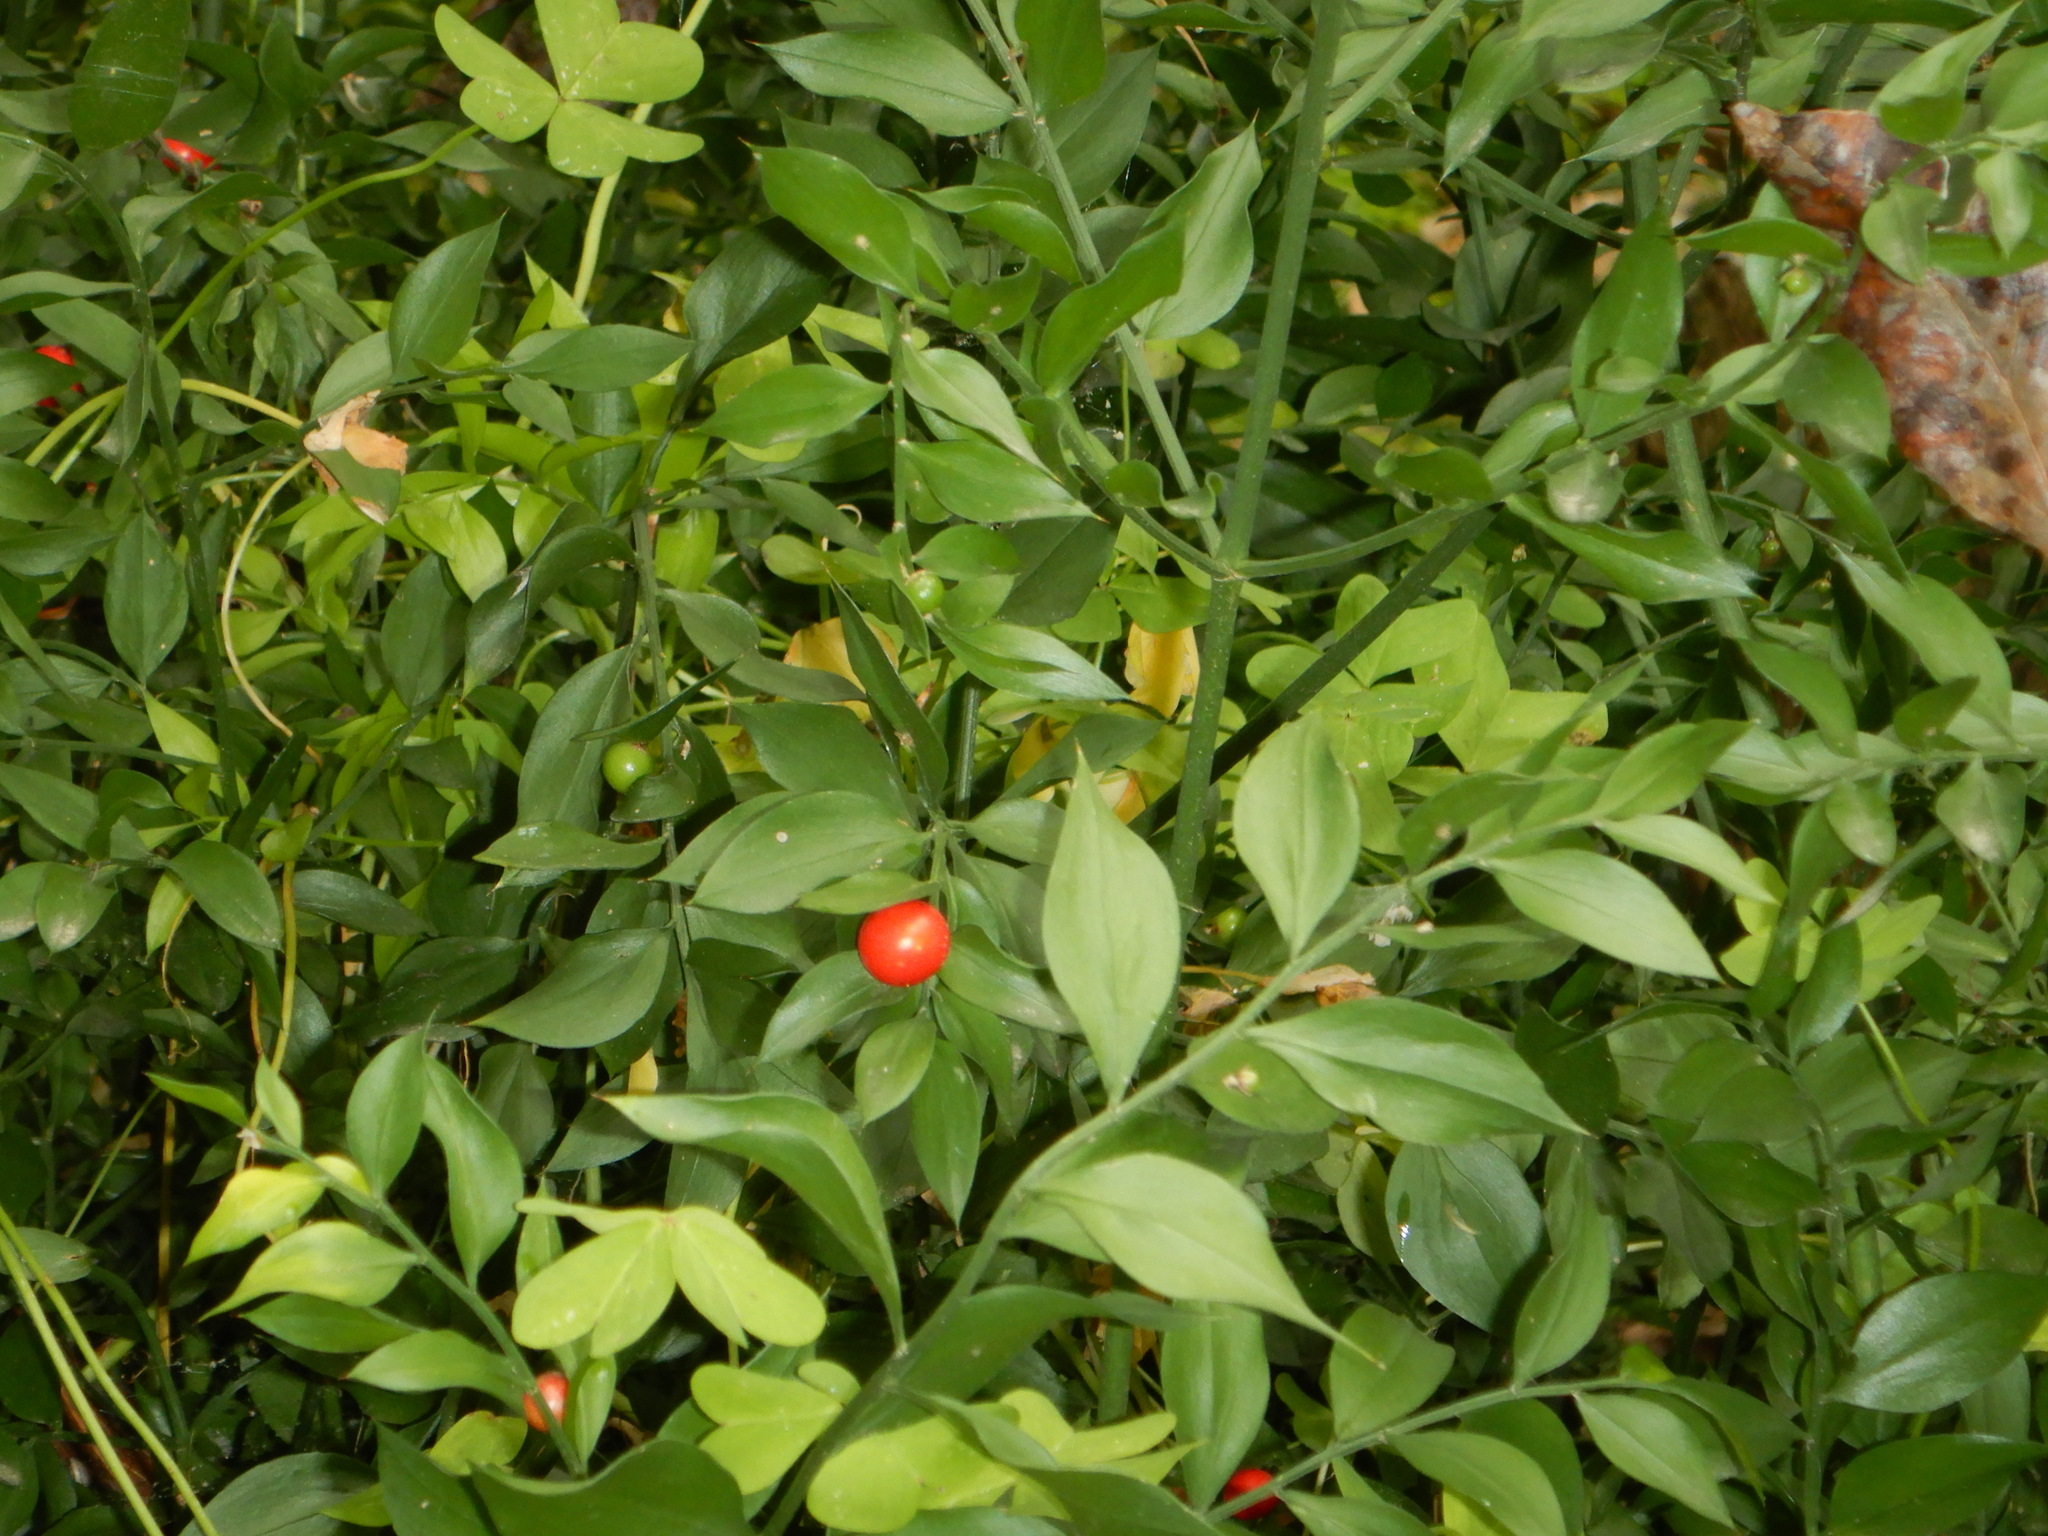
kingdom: Plantae
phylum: Tracheophyta
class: Liliopsida
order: Asparagales
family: Asparagaceae
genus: Ruscus
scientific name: Ruscus aculeatus
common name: Butcher's-broom
